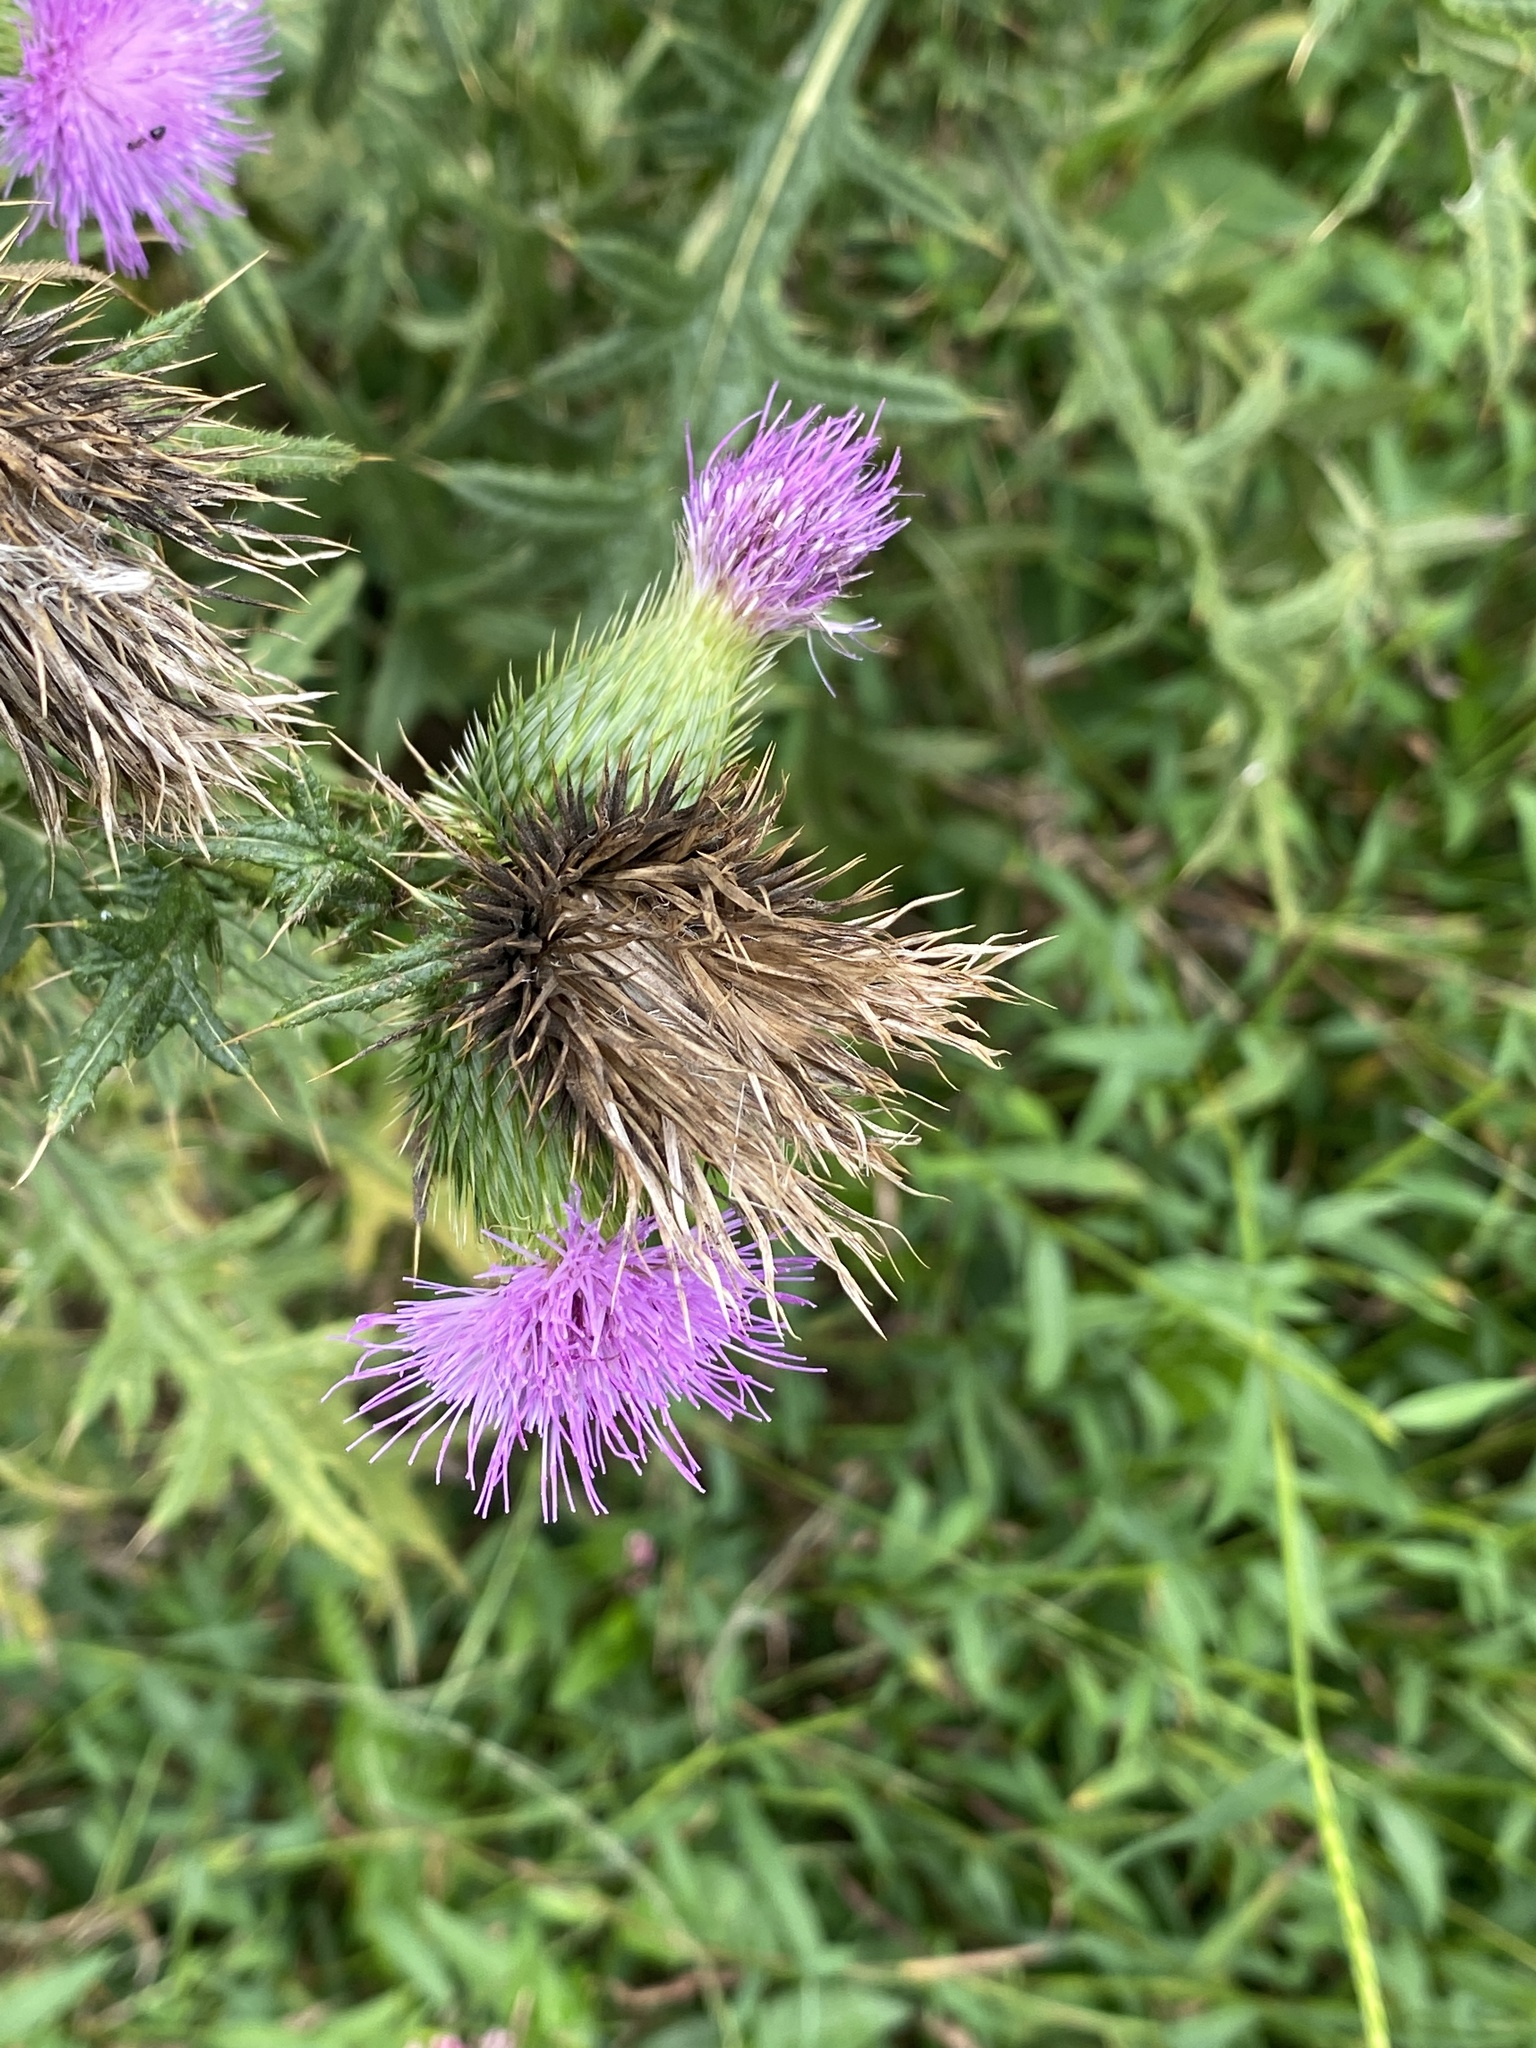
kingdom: Plantae
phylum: Tracheophyta
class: Magnoliopsida
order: Asterales
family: Asteraceae
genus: Cirsium
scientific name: Cirsium vulgare
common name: Bull thistle
